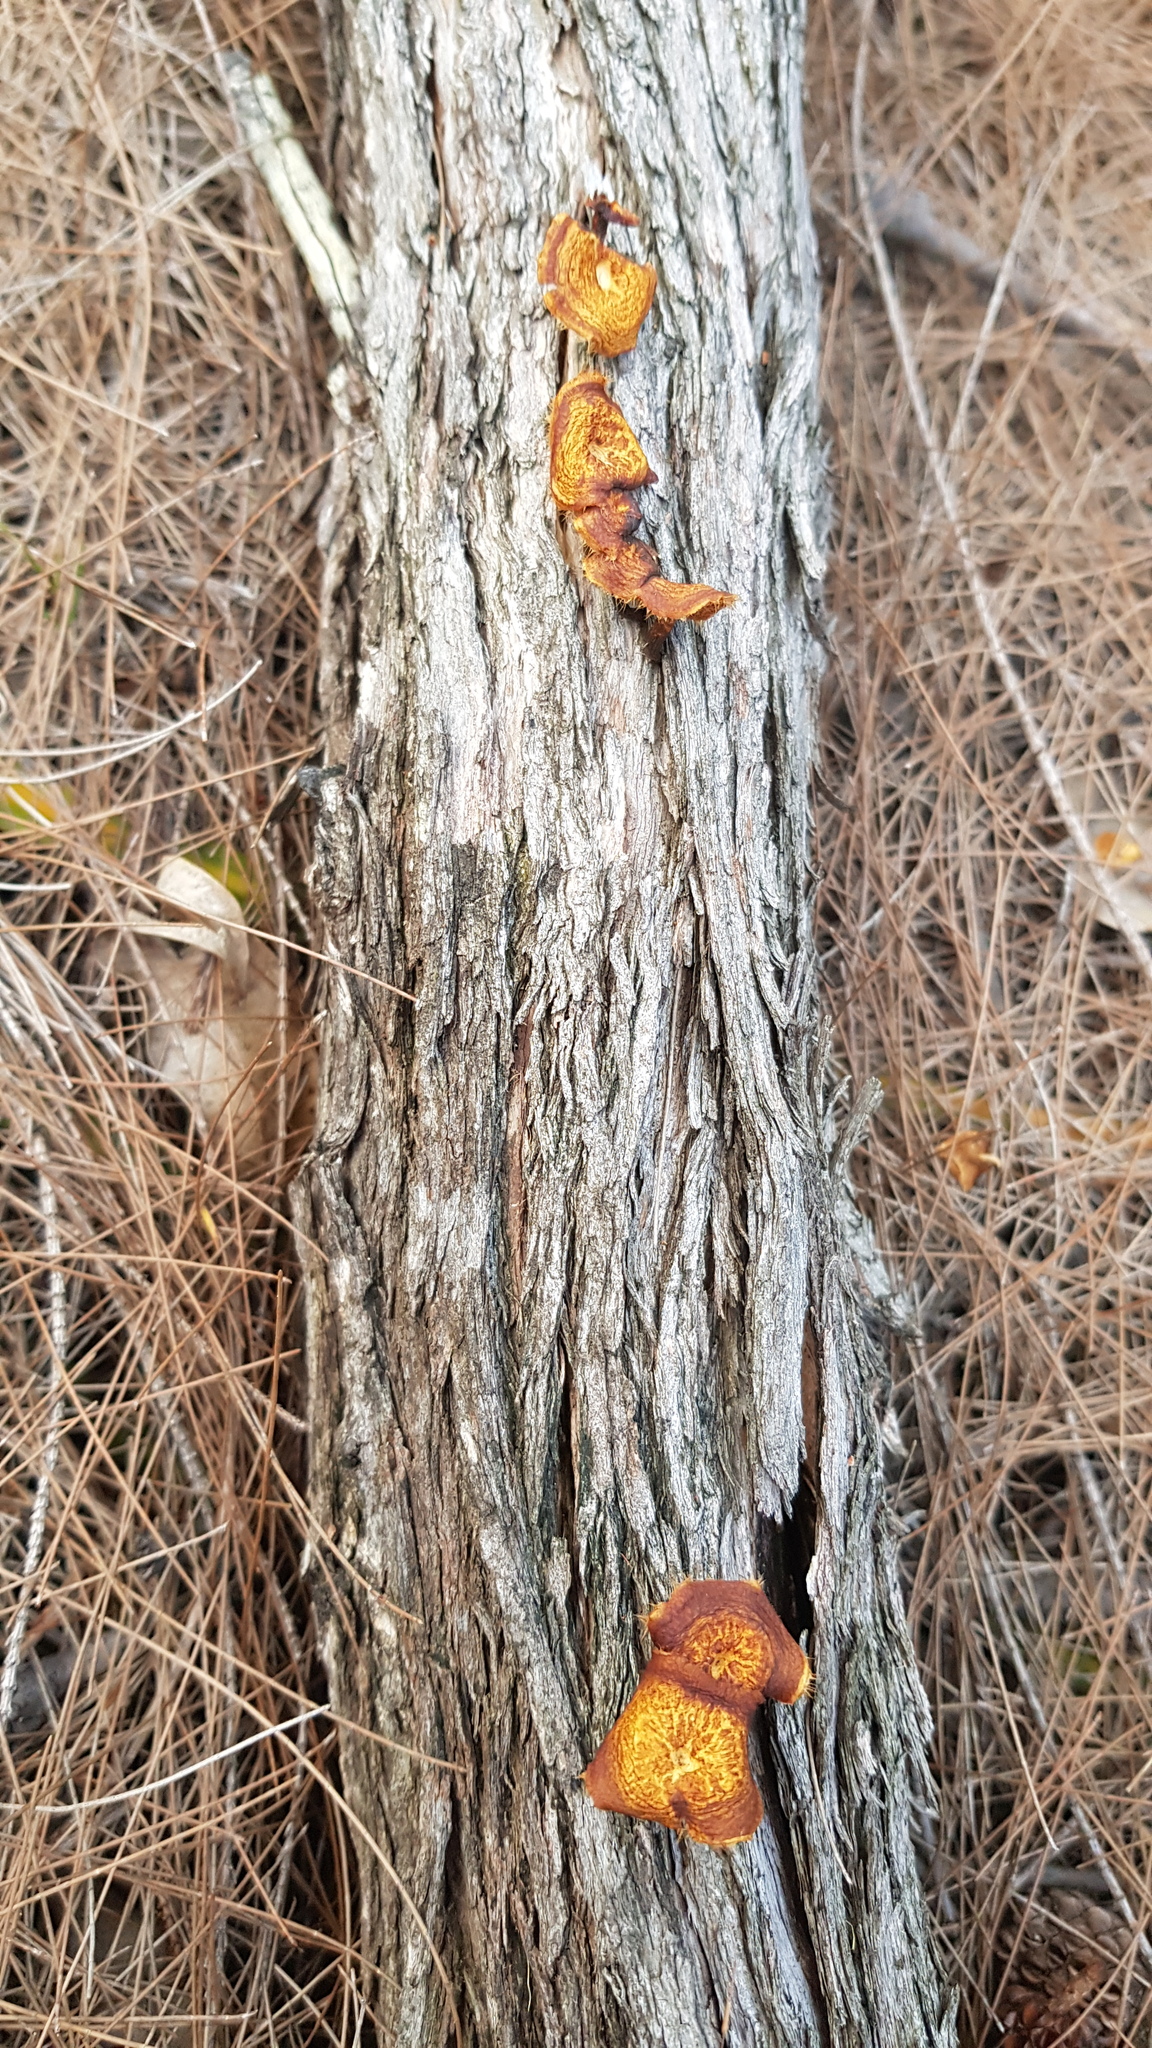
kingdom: Fungi
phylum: Basidiomycota
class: Agaricomycetes
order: Polyporales
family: Polyporaceae
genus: Lentinus
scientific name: Lentinus arcularius
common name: Spring polypore
